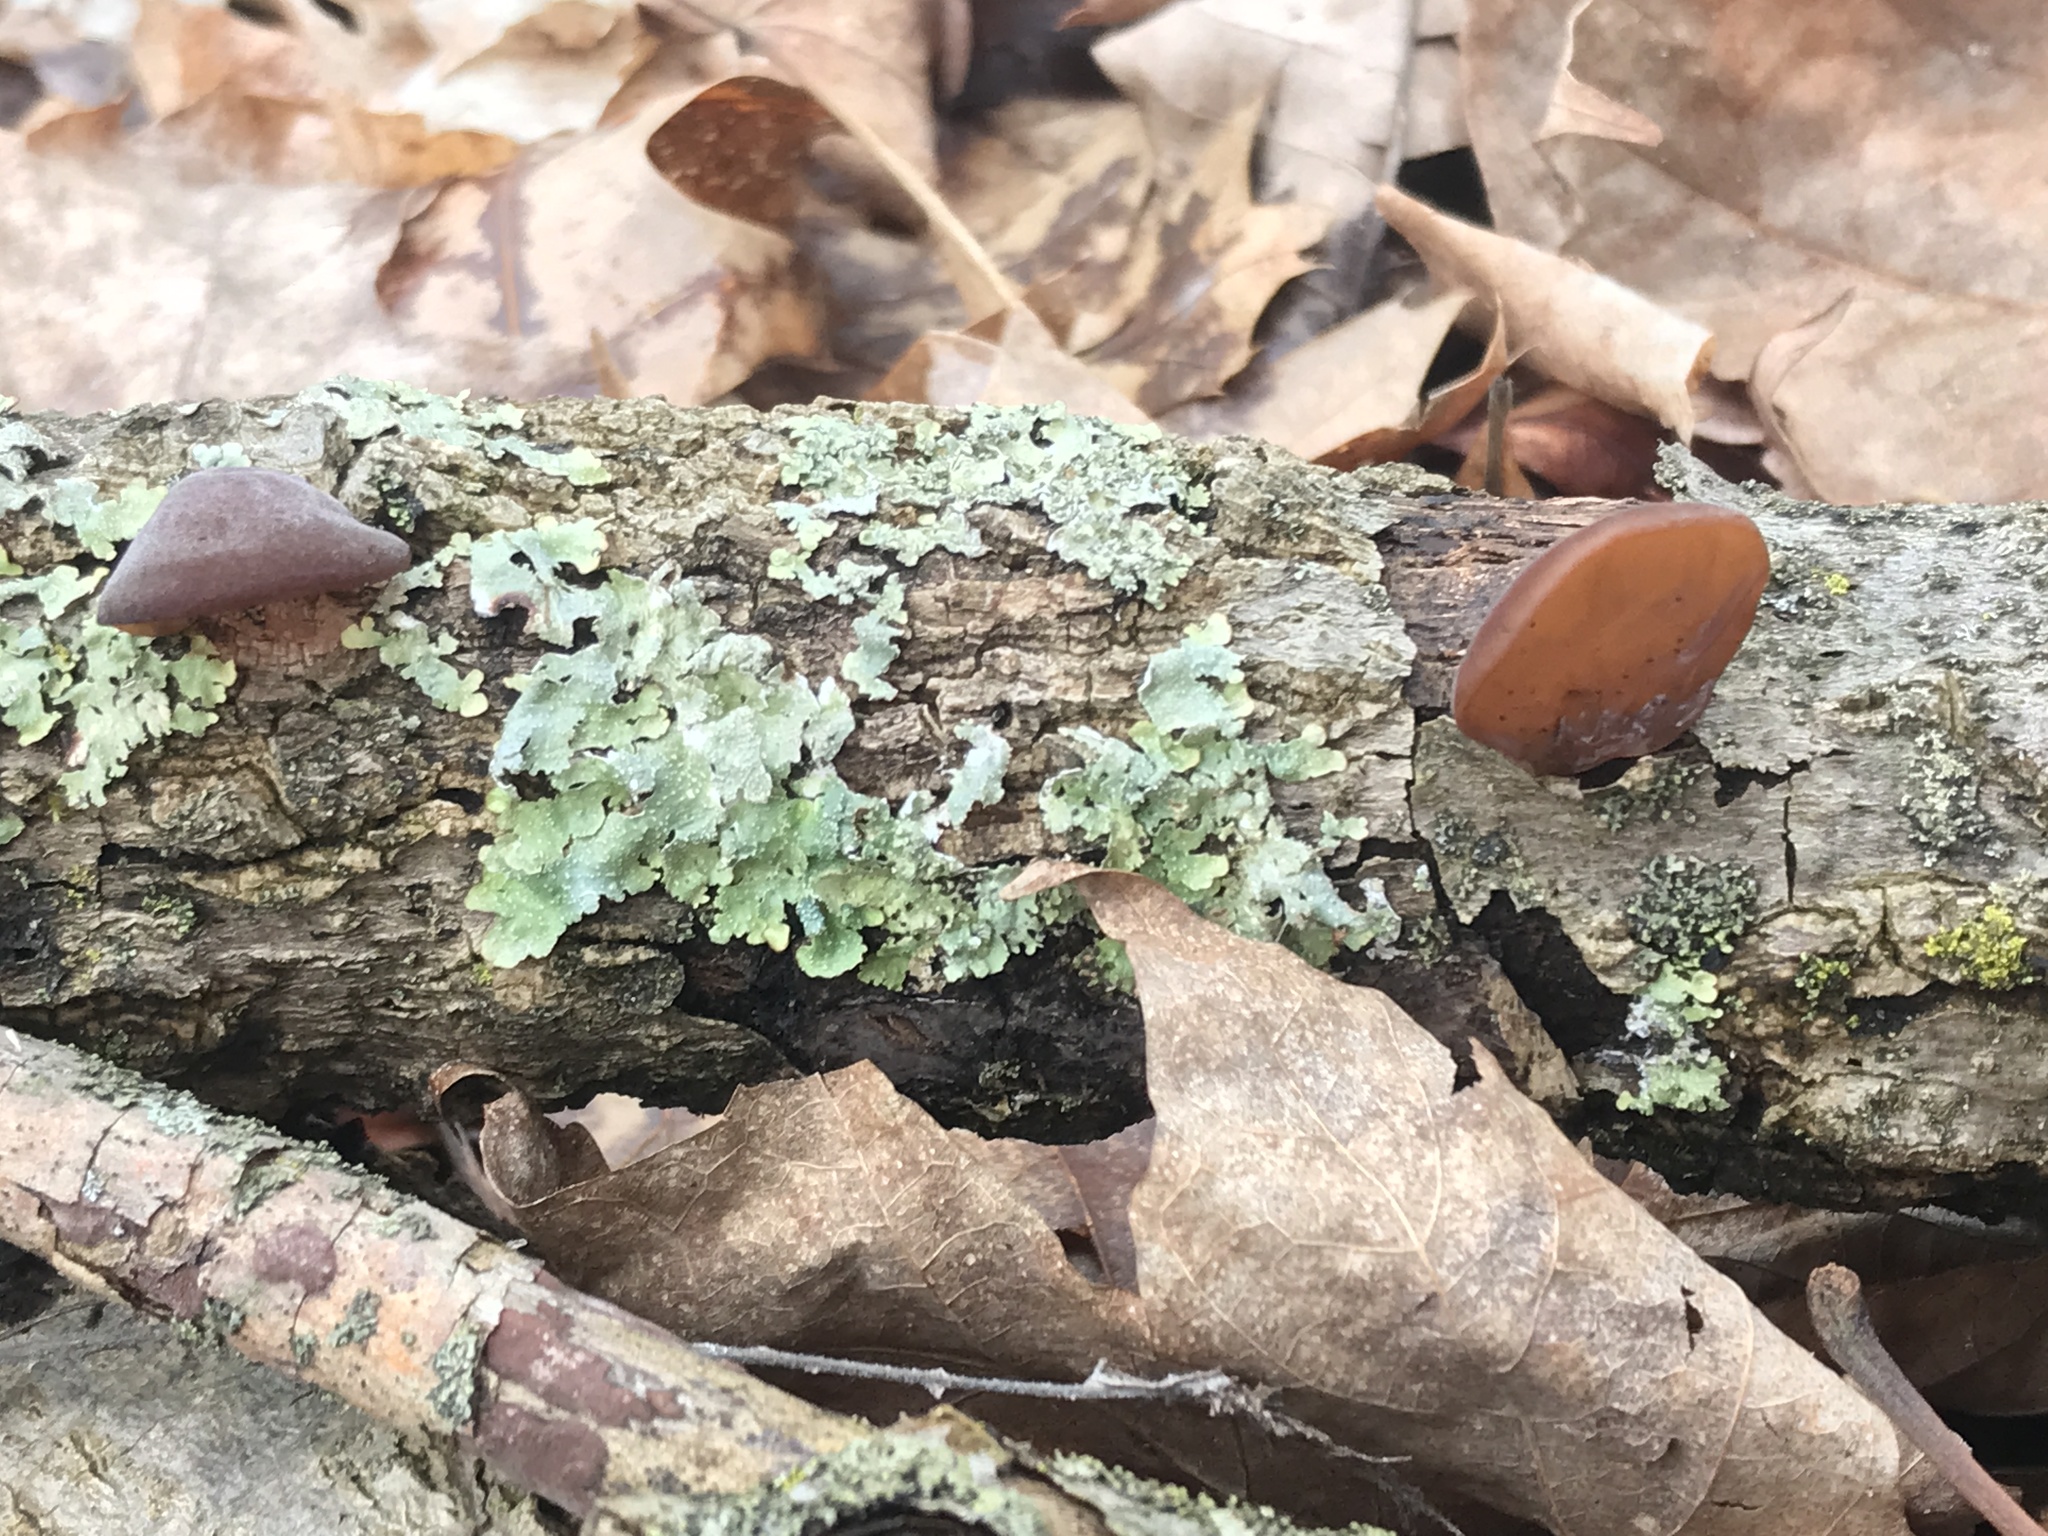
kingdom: Fungi
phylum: Basidiomycota
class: Agaricomycetes
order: Auriculariales
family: Auriculariaceae
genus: Auricularia
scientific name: Auricularia americana
